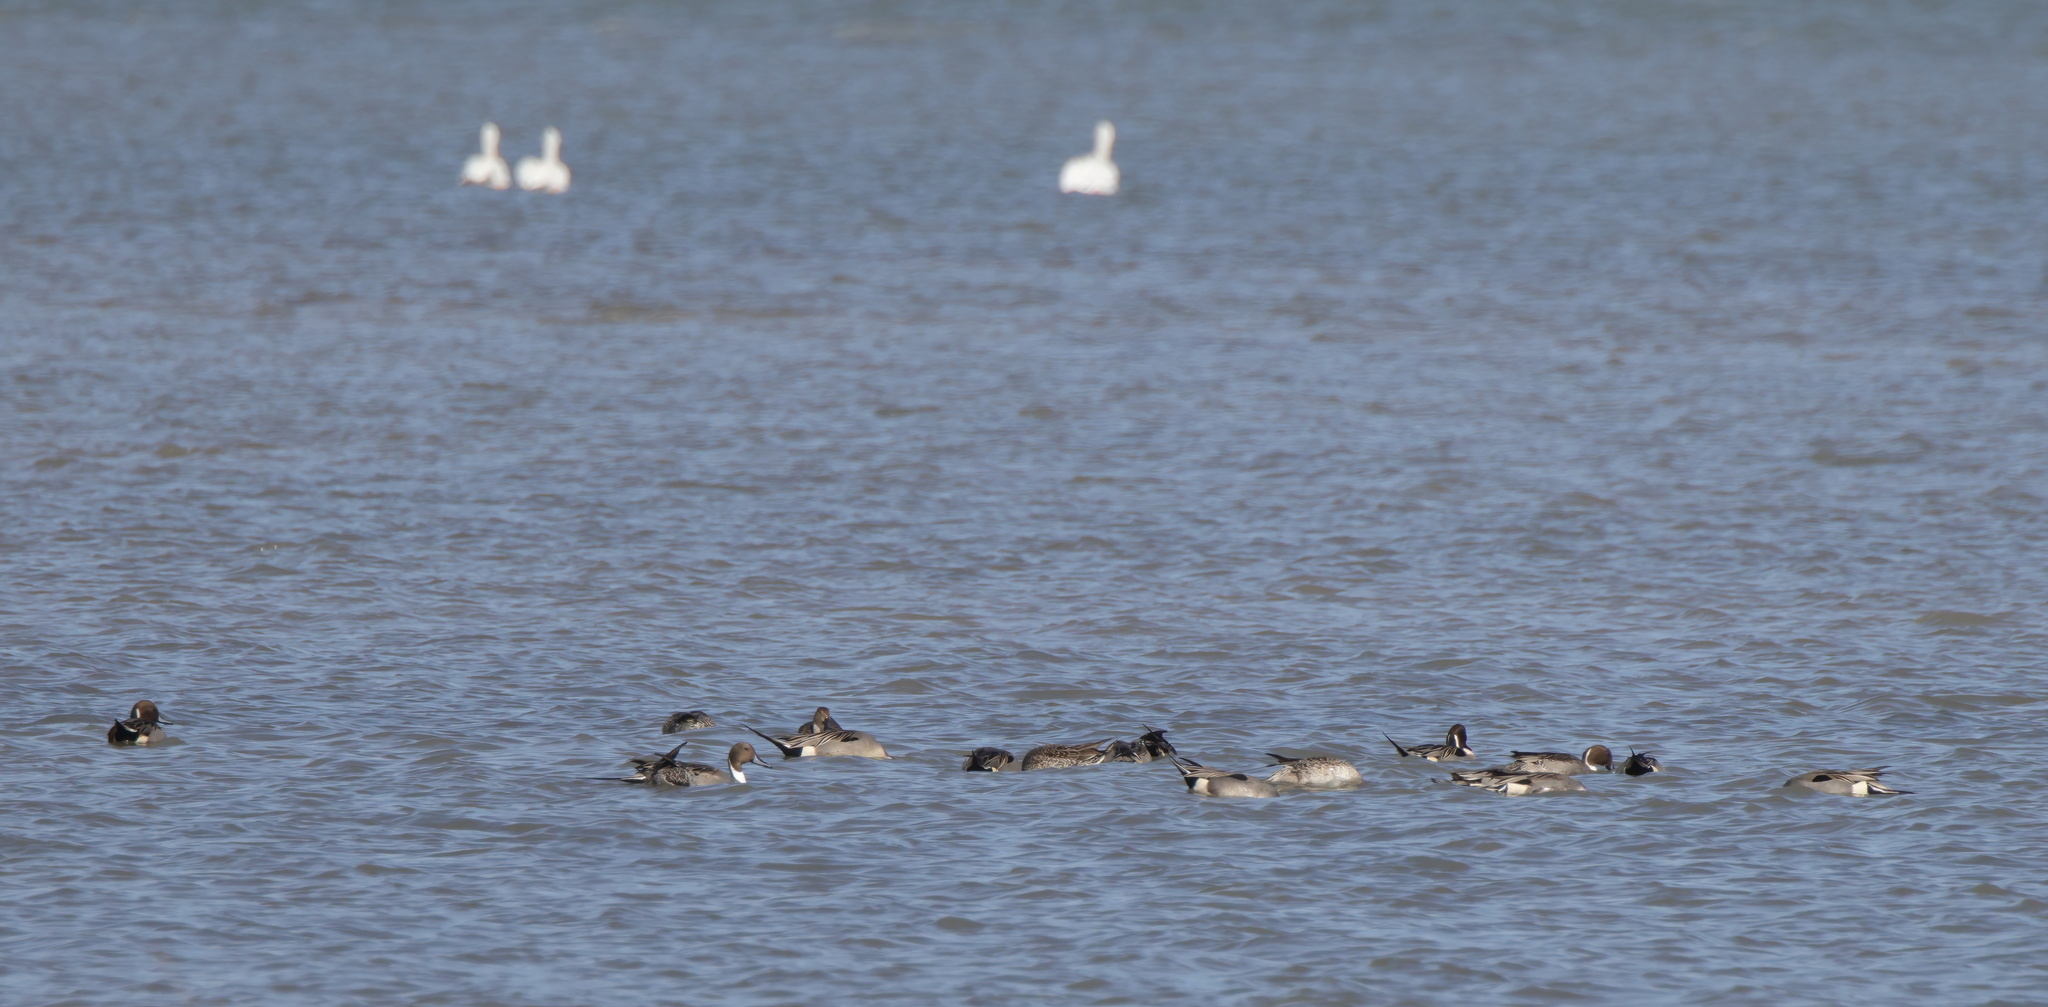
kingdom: Animalia
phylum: Chordata
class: Aves
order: Anseriformes
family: Anatidae
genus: Anas
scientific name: Anas acuta
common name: Northern pintail
